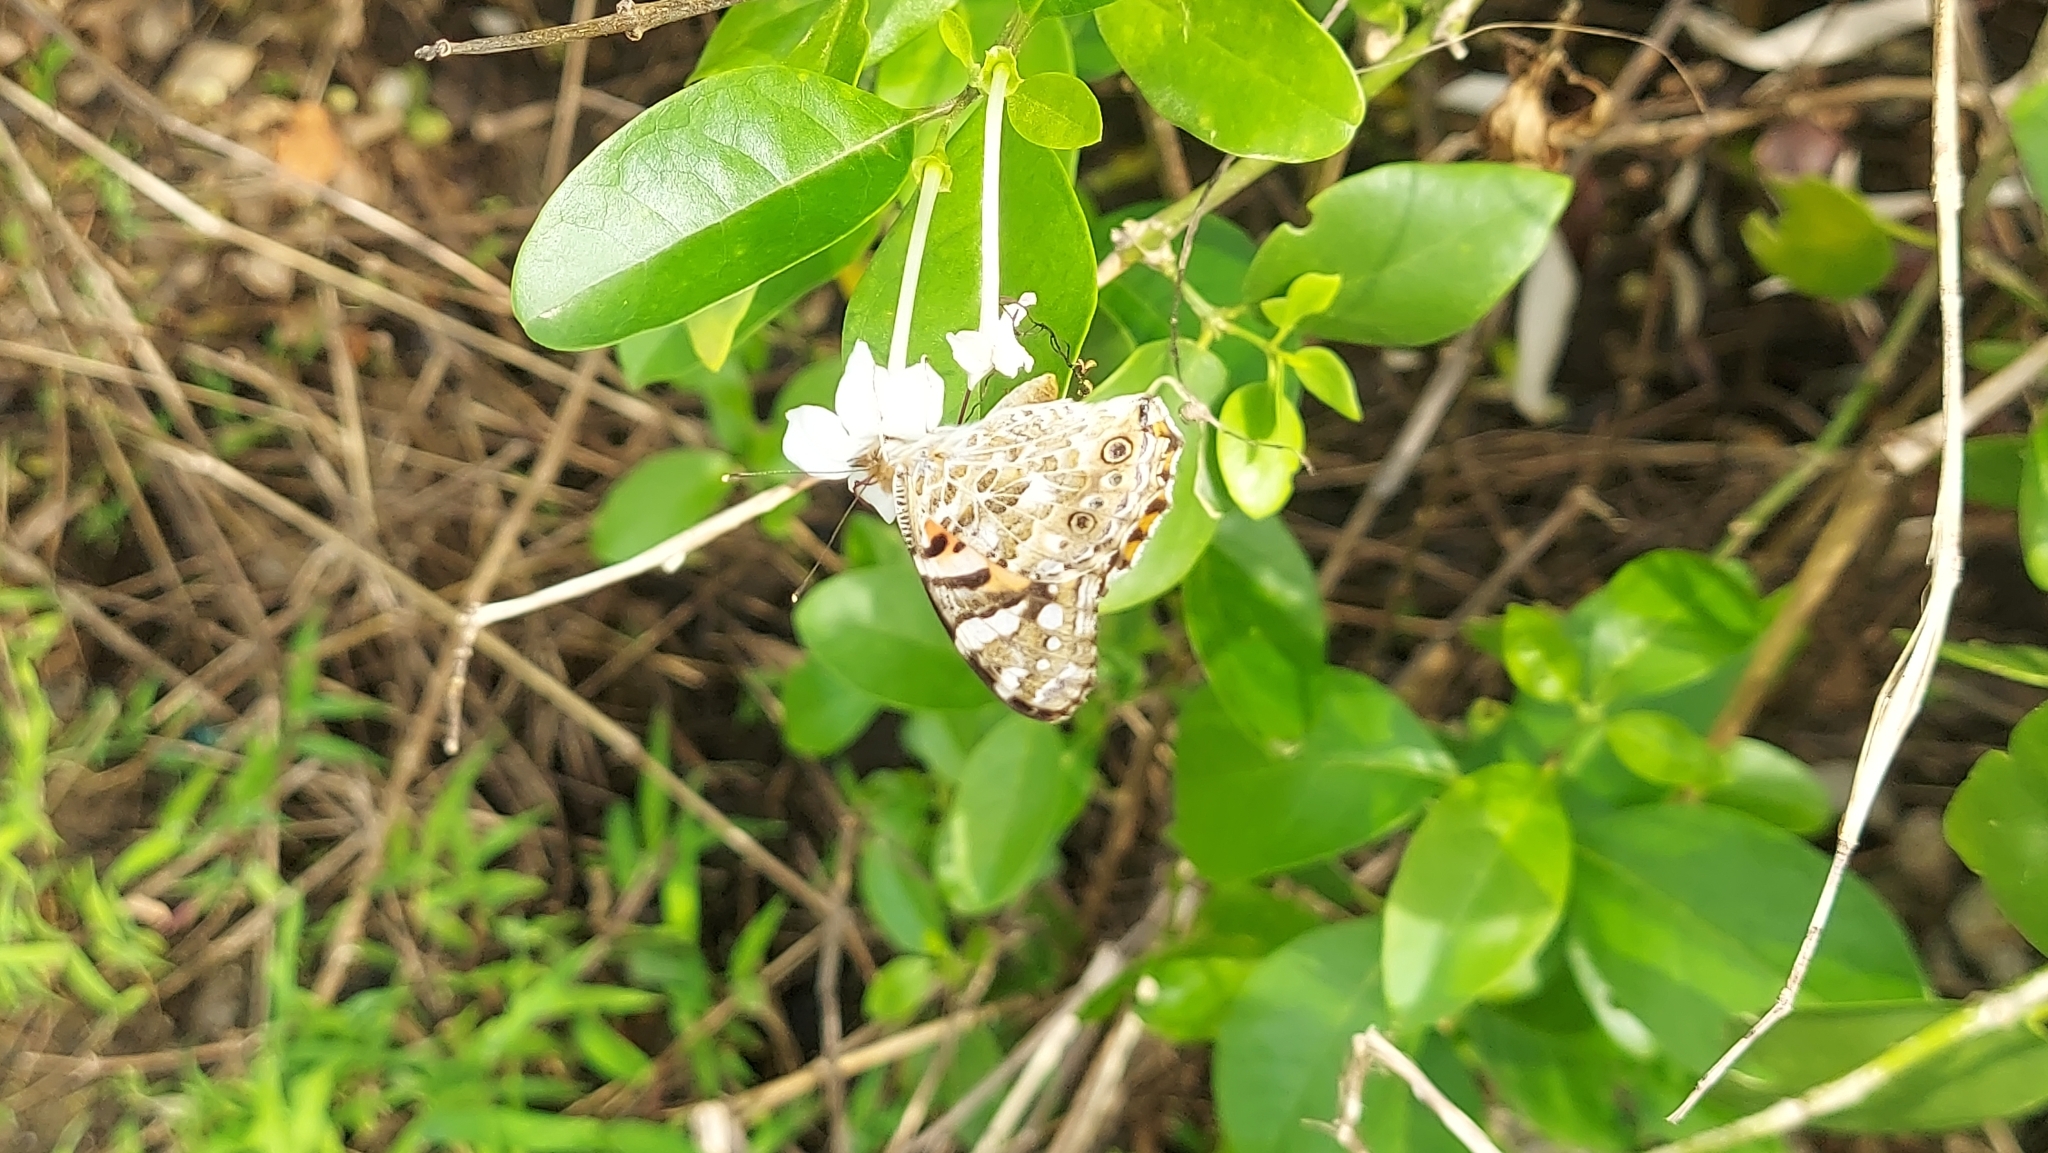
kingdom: Animalia
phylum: Arthropoda
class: Insecta
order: Lepidoptera
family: Nymphalidae
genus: Vanessa
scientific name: Vanessa cardui
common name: Painted lady
